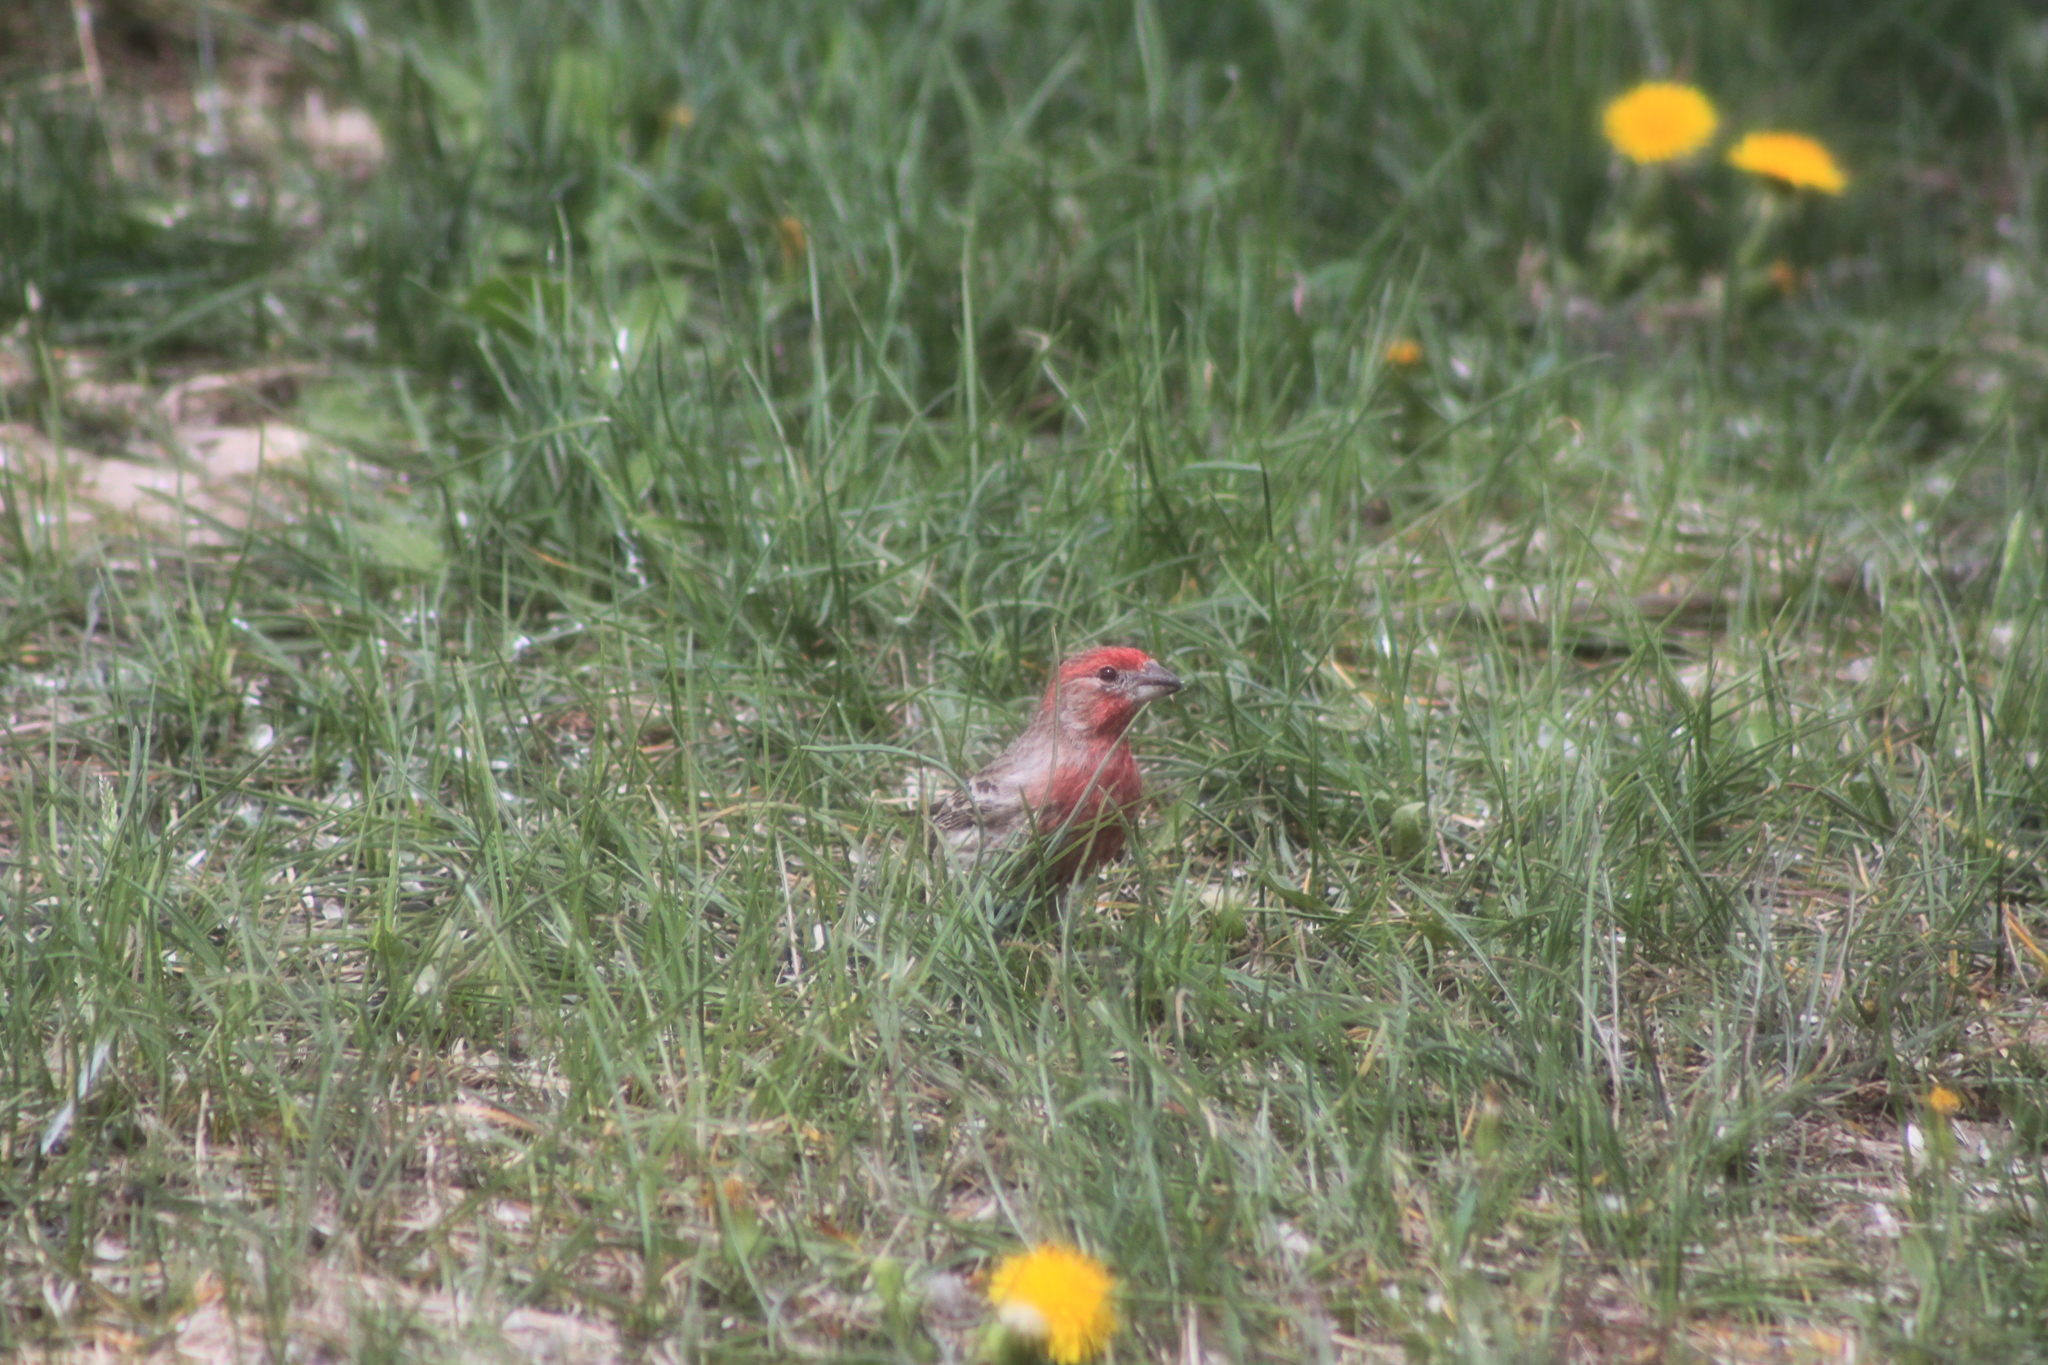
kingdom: Animalia
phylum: Chordata
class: Aves
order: Passeriformes
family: Fringillidae
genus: Haemorhous
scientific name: Haemorhous mexicanus
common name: House finch
